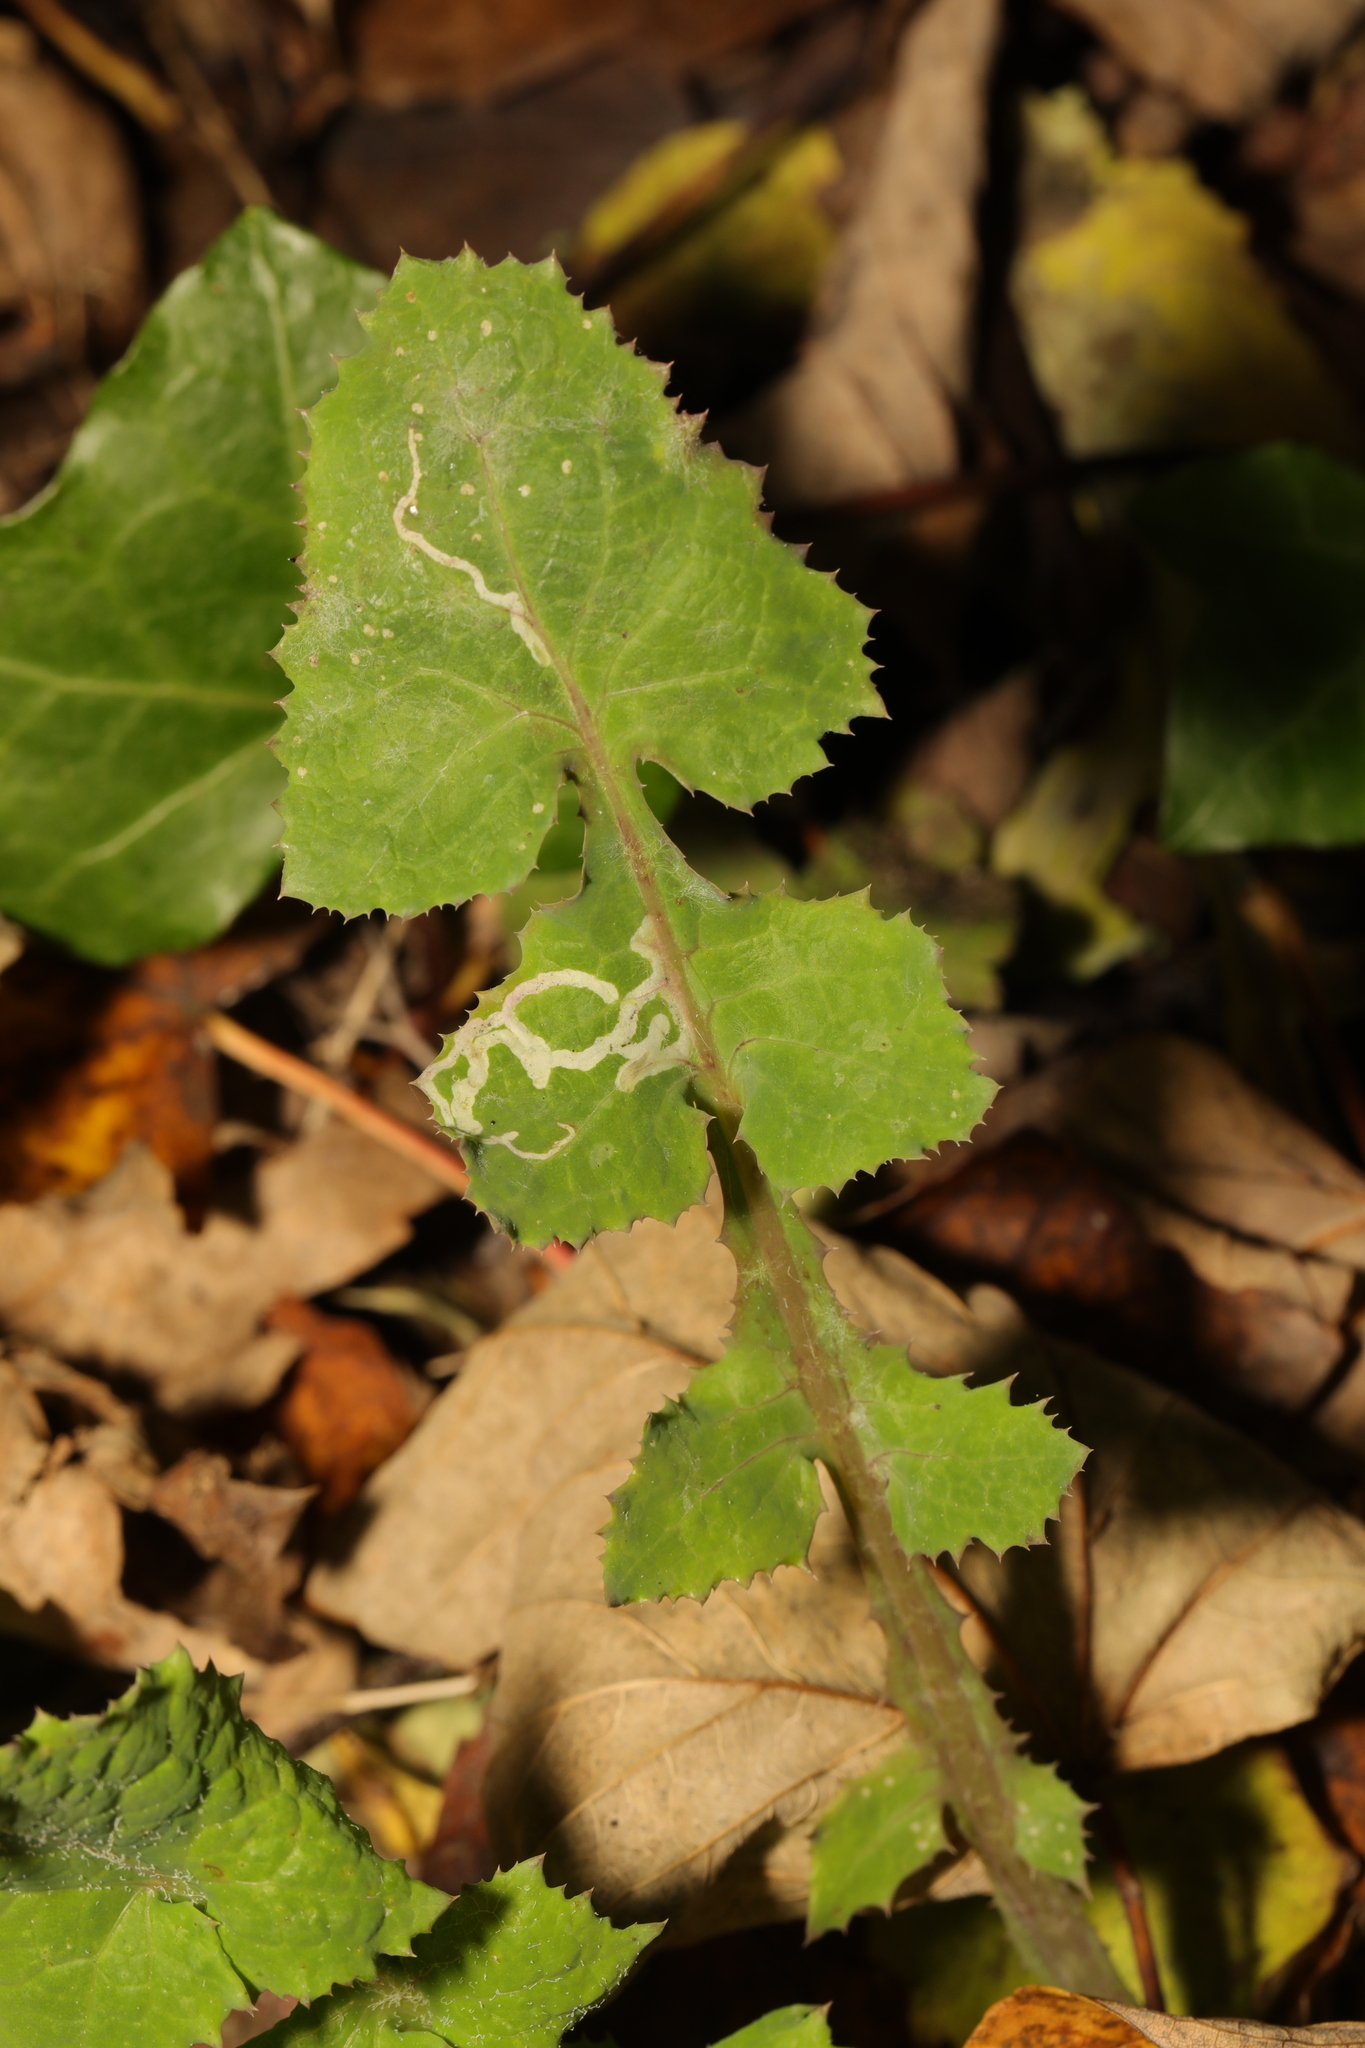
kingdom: Plantae
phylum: Tracheophyta
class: Magnoliopsida
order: Asterales
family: Asteraceae
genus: Sonchus
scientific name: Sonchus oleraceus
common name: Common sowthistle
